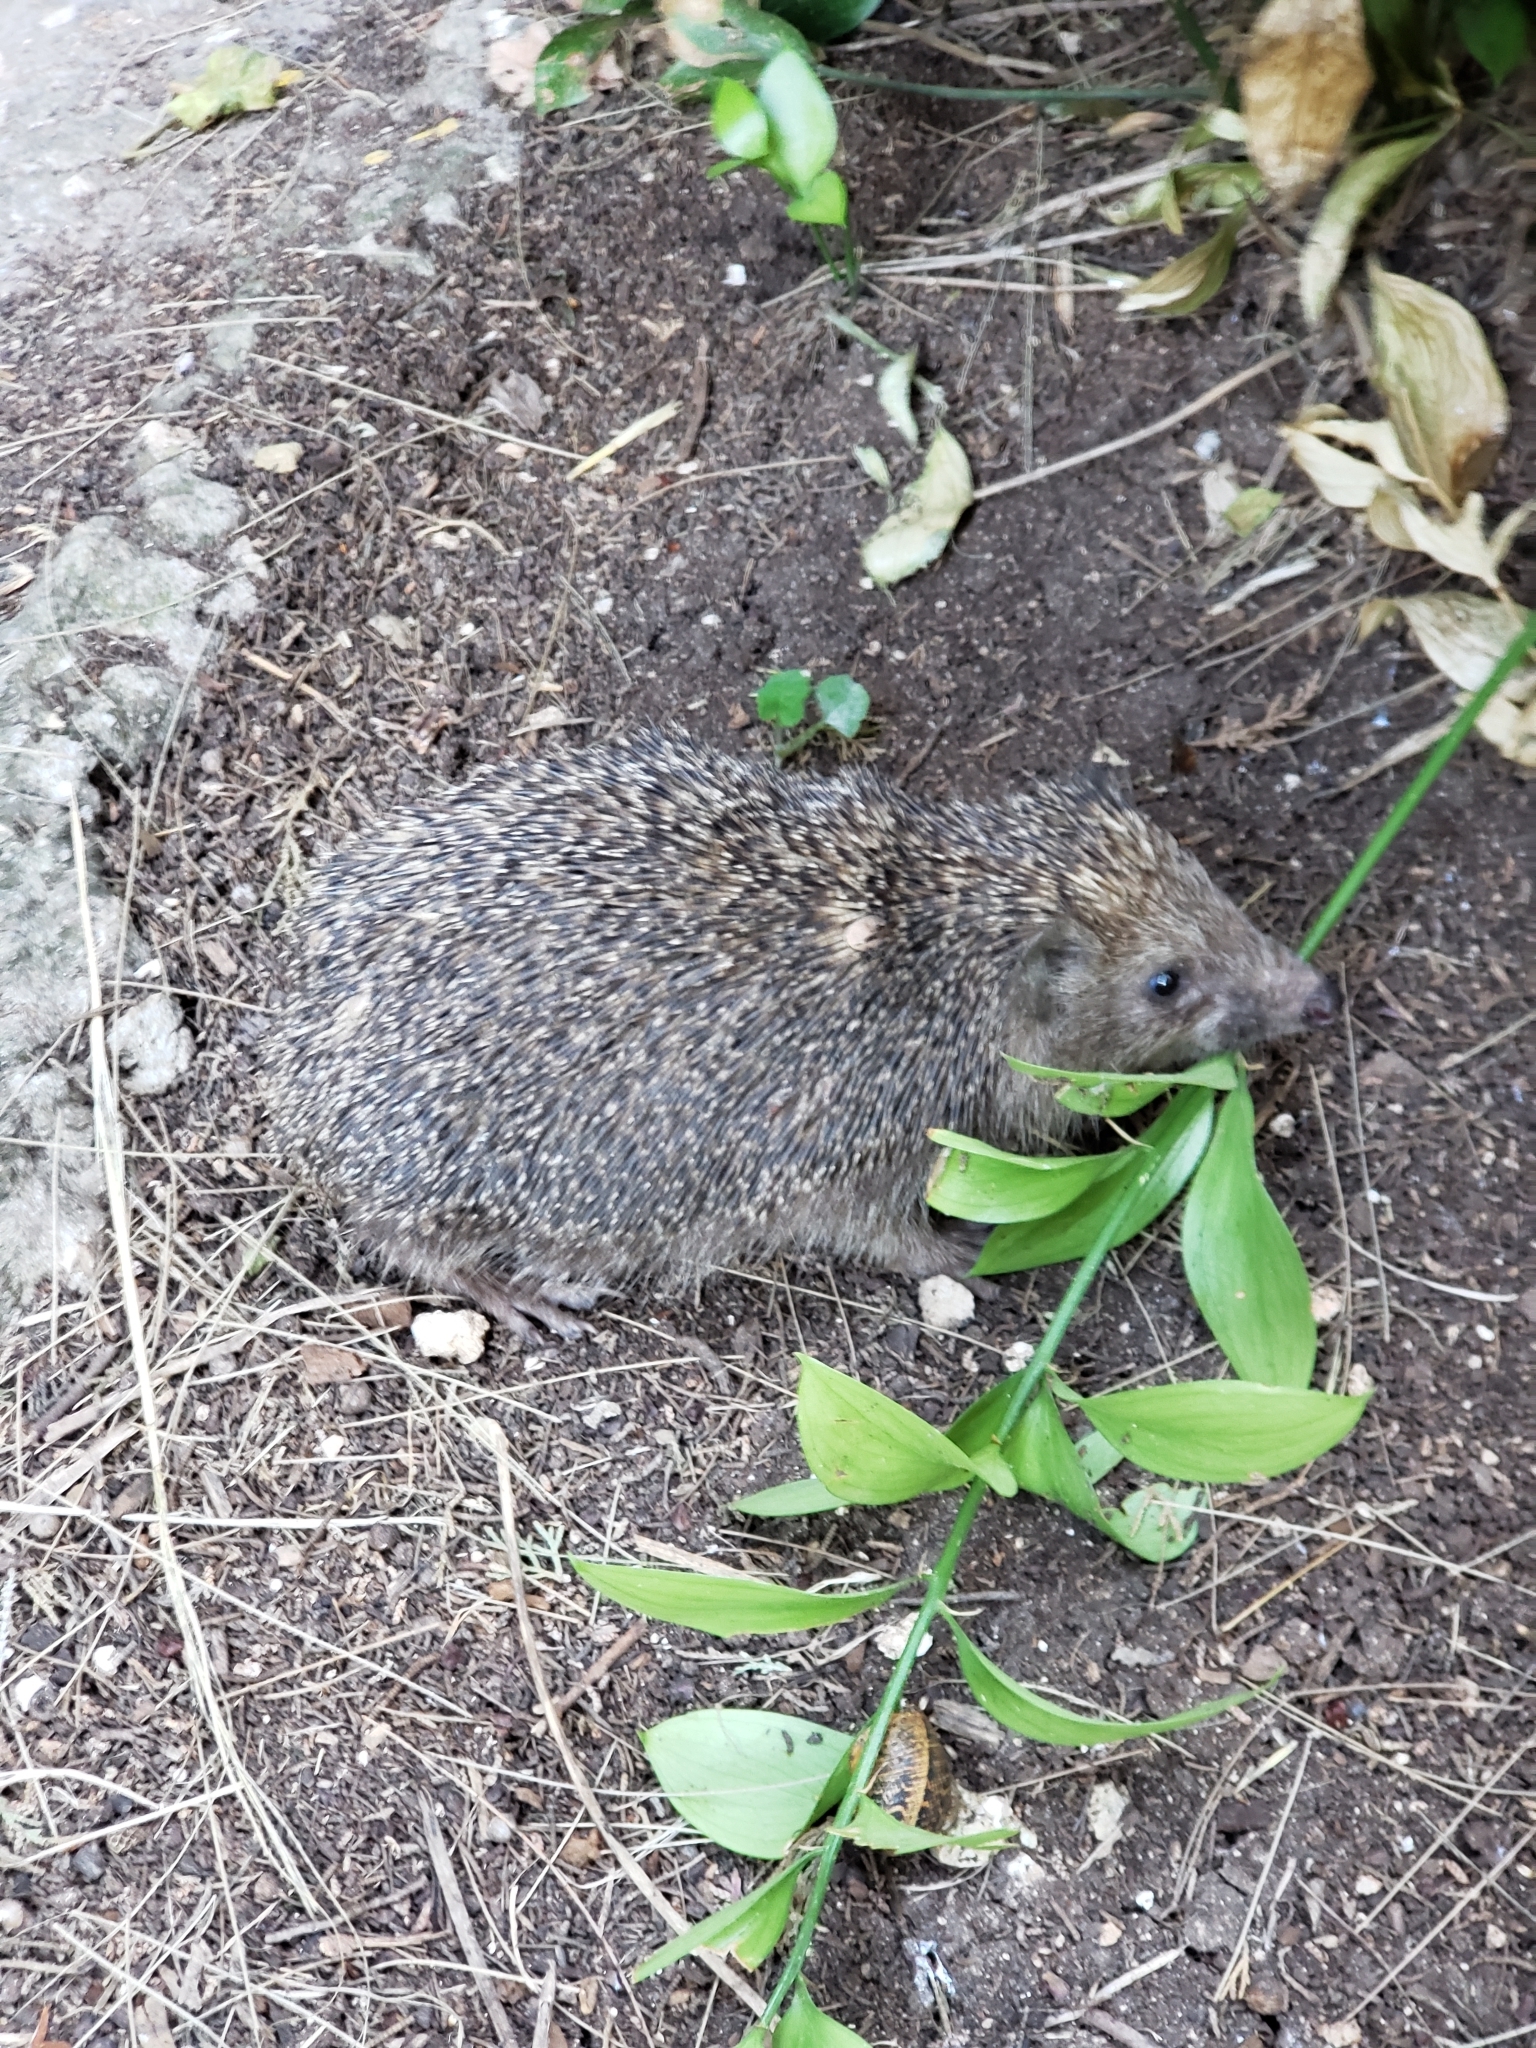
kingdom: Animalia
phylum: Chordata
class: Mammalia
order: Erinaceomorpha
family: Erinaceidae
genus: Erinaceus
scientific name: Erinaceus concolor
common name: Southern white-breasted hedgehog
